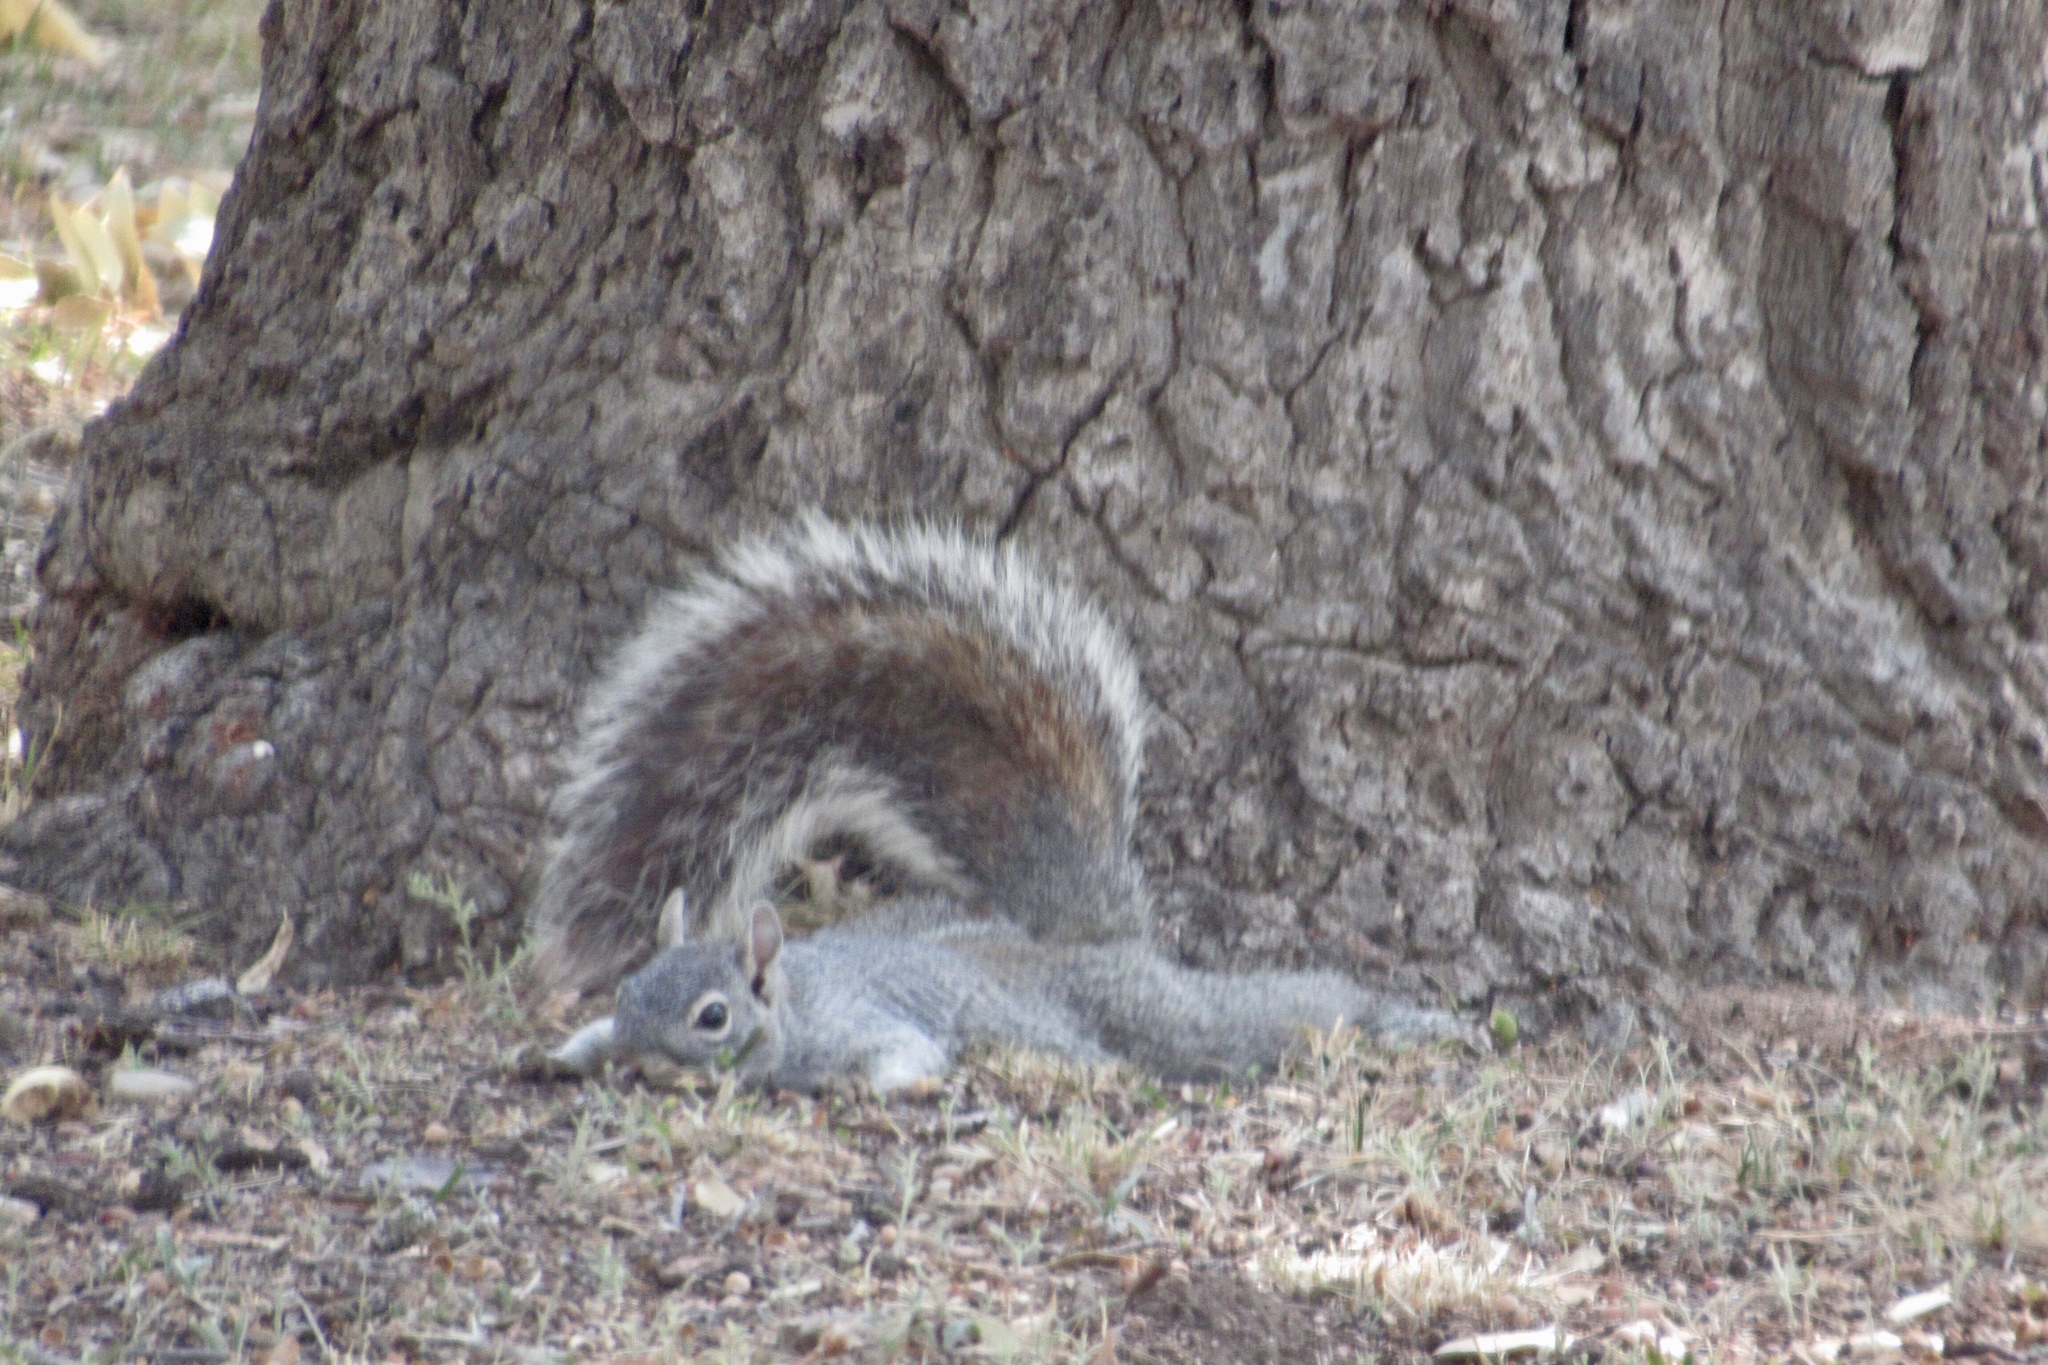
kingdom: Animalia
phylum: Chordata
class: Mammalia
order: Rodentia
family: Sciuridae
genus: Sciurus
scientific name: Sciurus arizonensis
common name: Arizona gray squirrel
